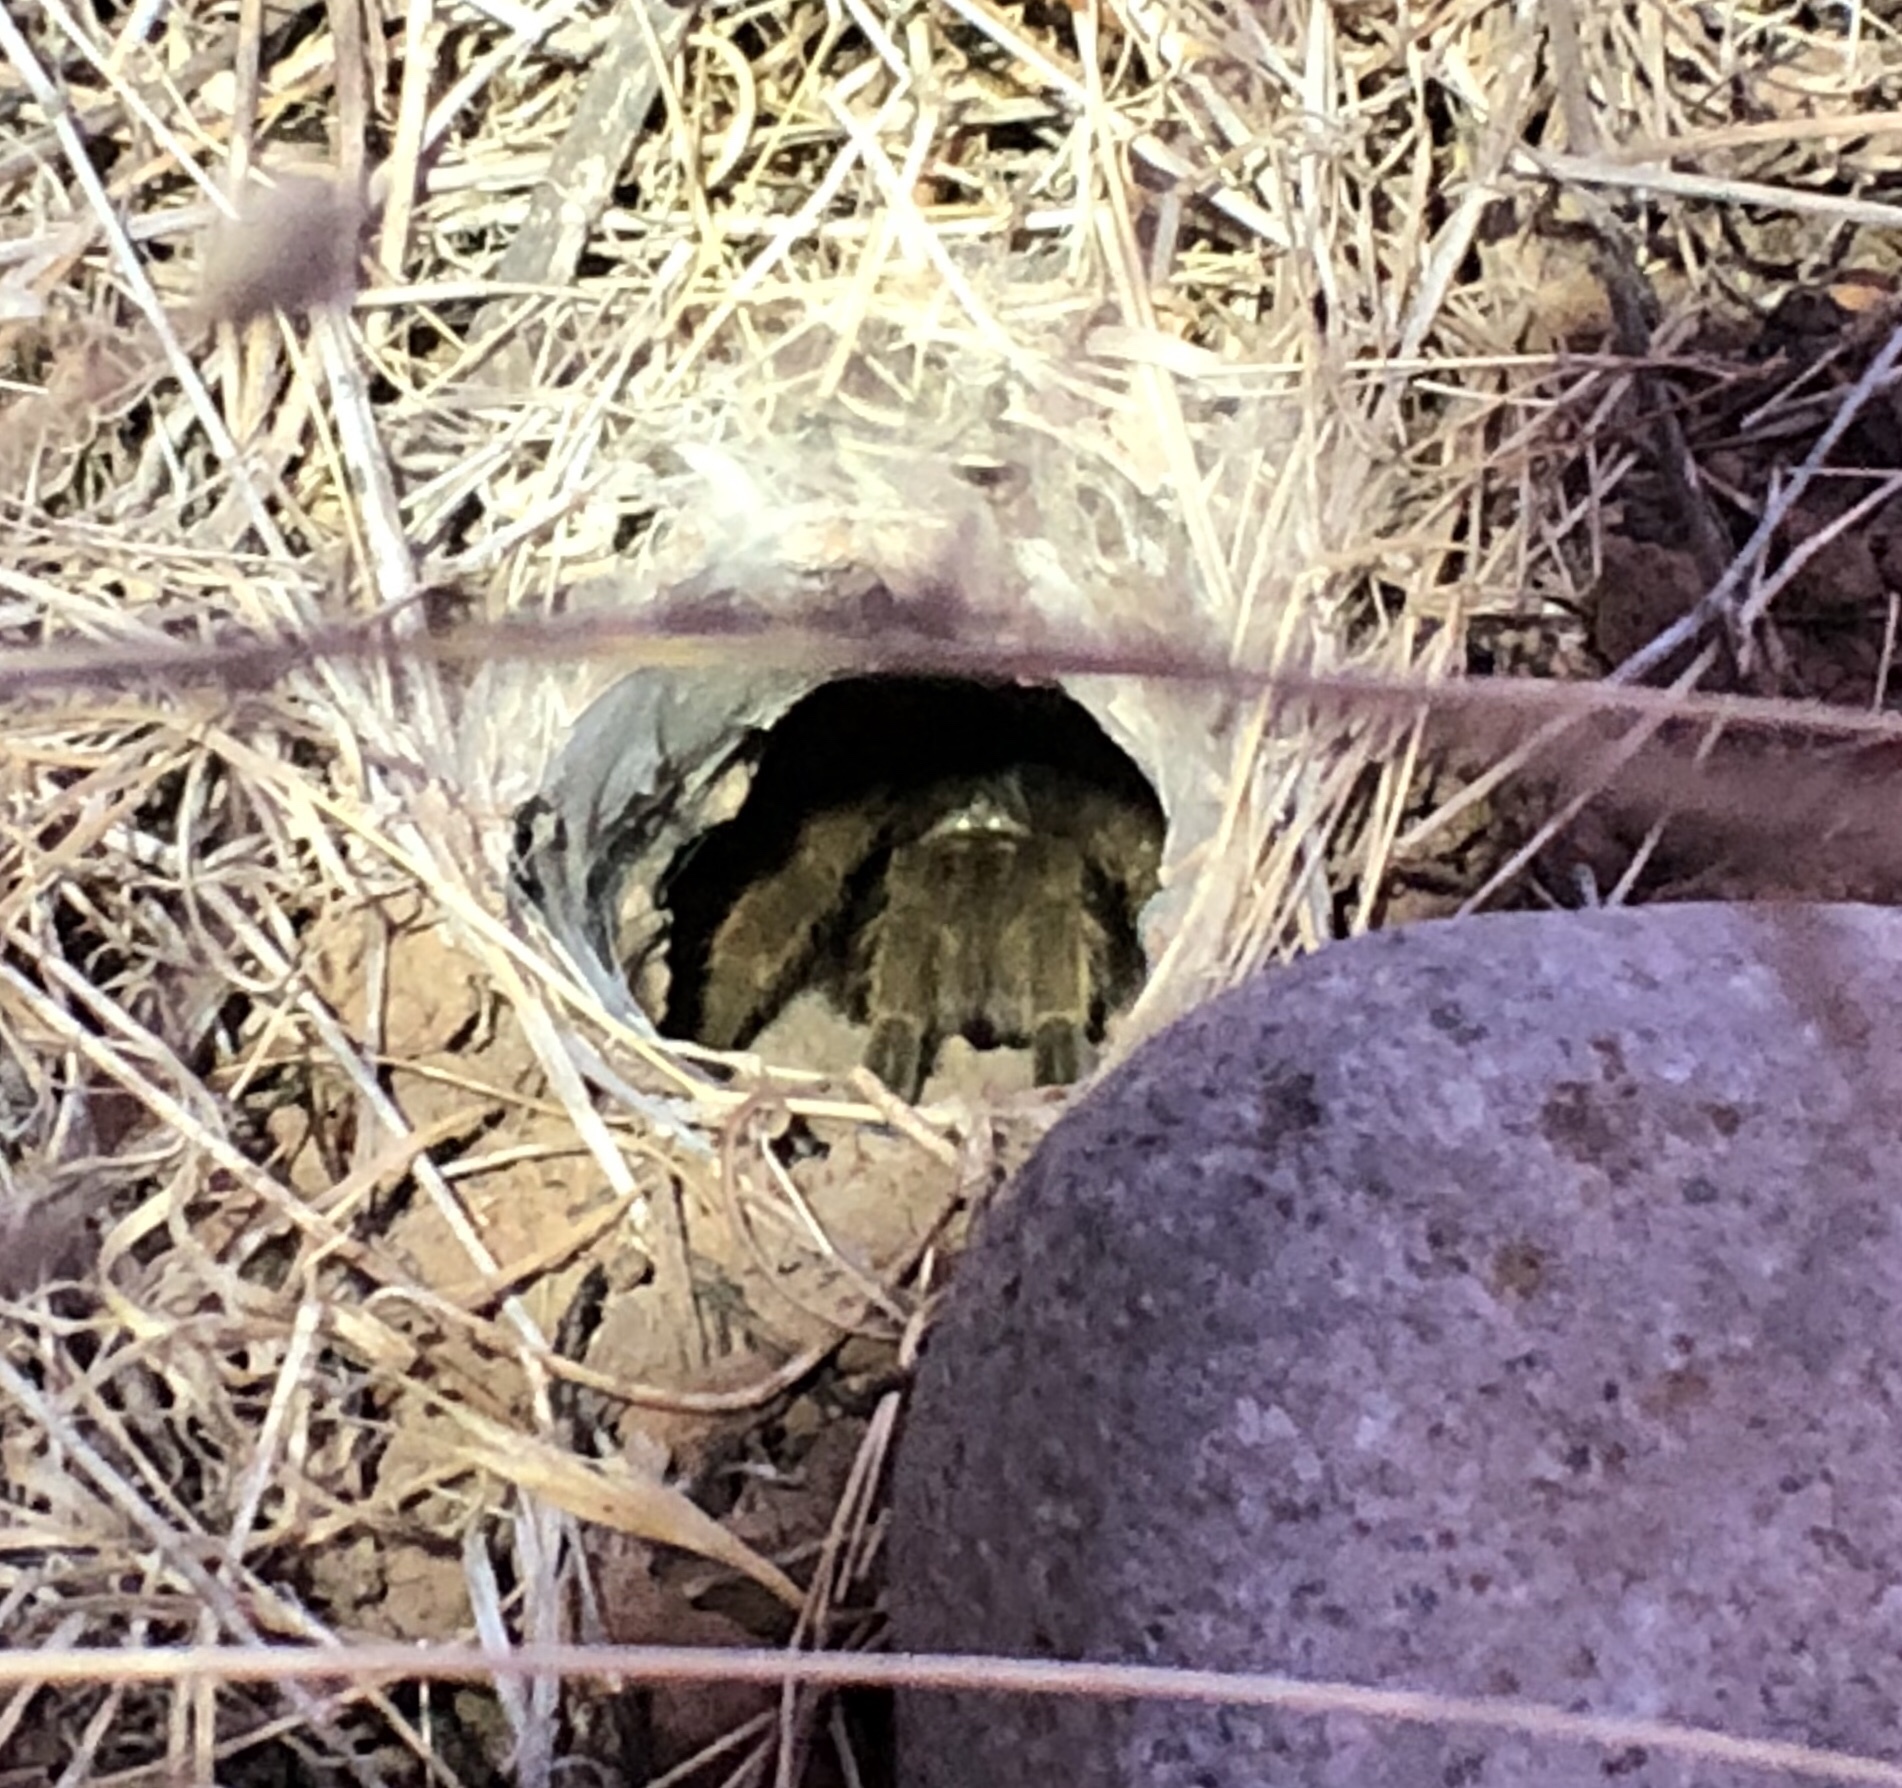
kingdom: Animalia
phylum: Arthropoda
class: Arachnida
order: Araneae
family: Theraphosidae
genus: Aphonopelma
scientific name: Aphonopelma eutylenum
